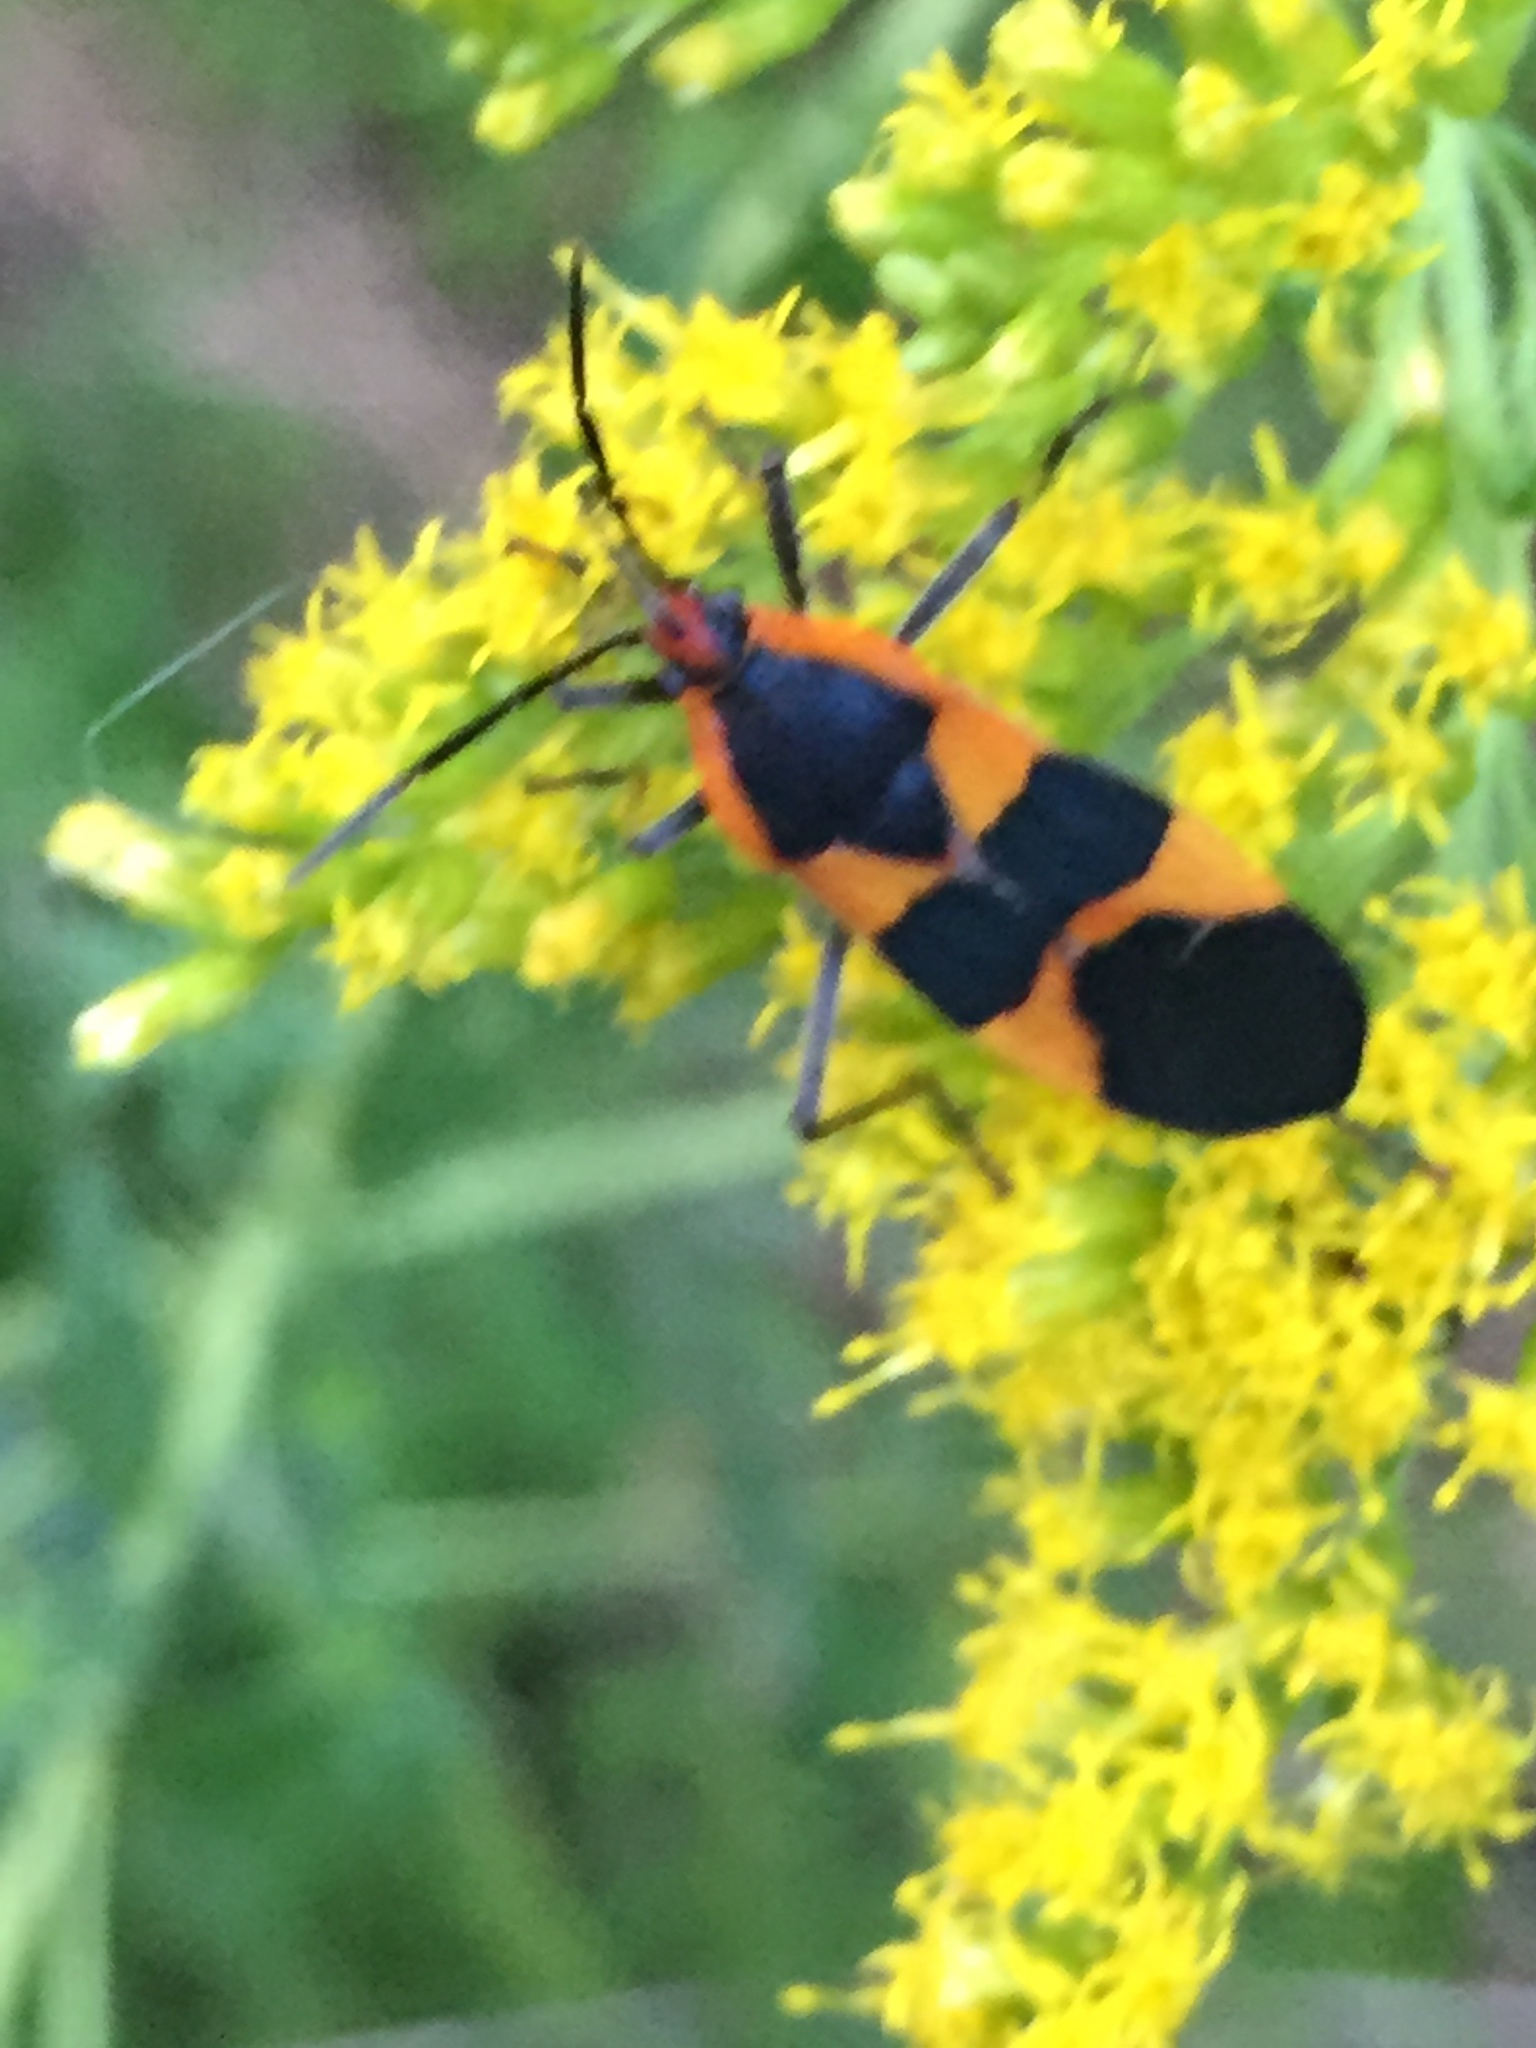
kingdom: Animalia
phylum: Arthropoda
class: Insecta
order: Hemiptera
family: Lygaeidae
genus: Oncopeltus
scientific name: Oncopeltus fasciatus
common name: Large milkweed bug
